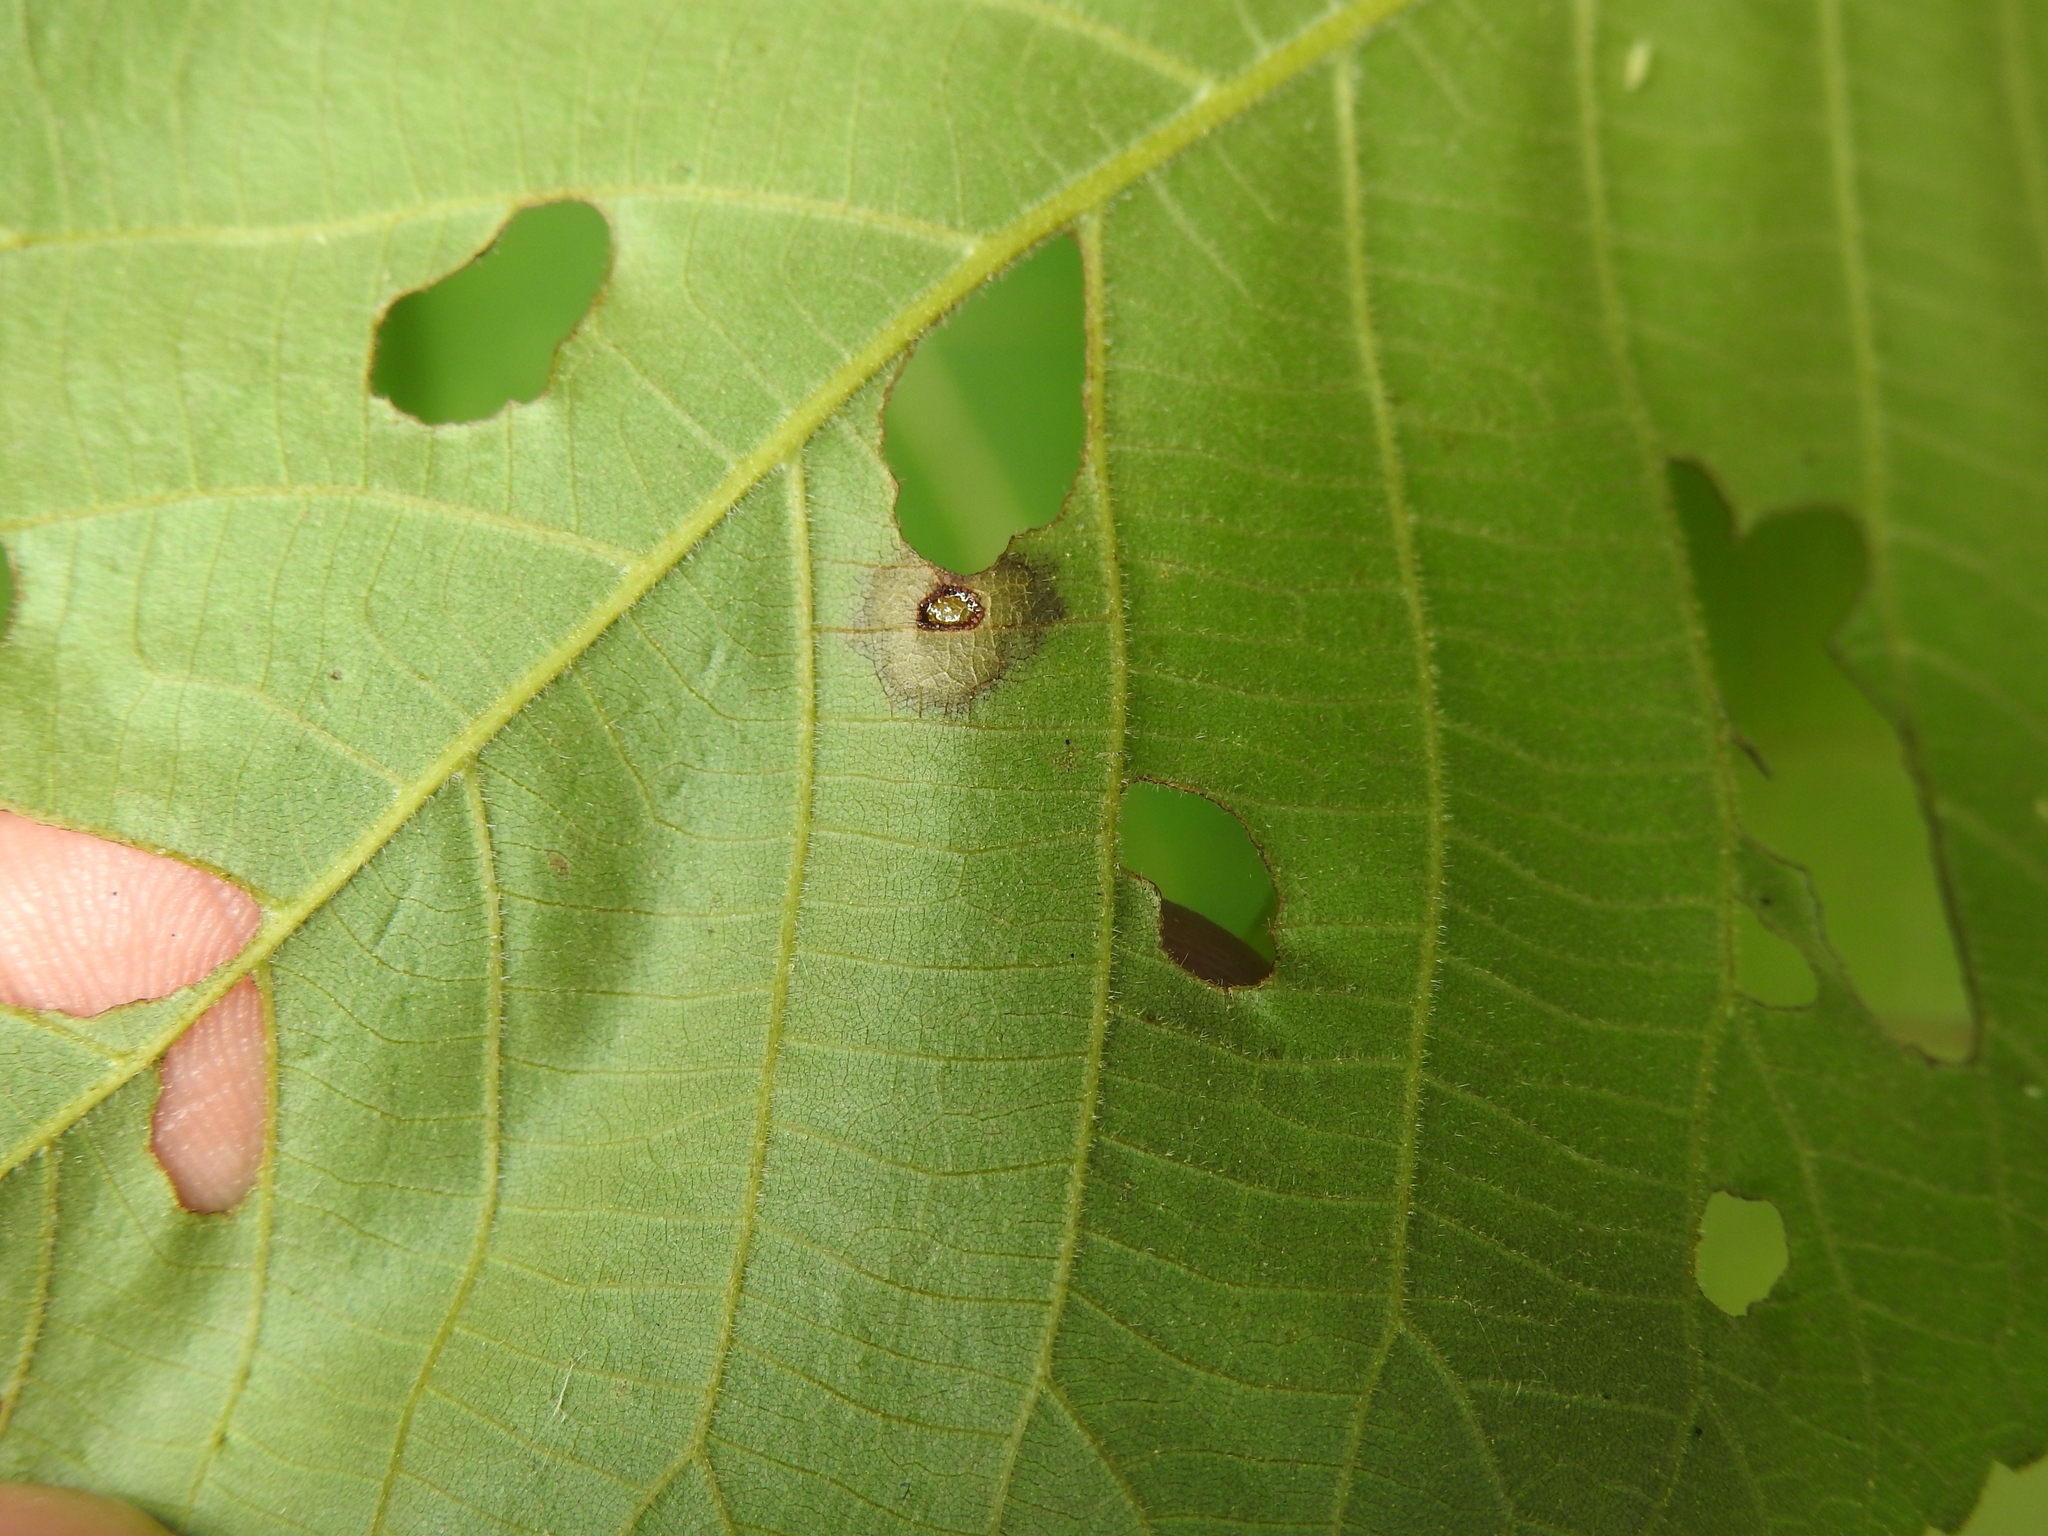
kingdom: Animalia
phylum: Arthropoda
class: Insecta
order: Diptera
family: Cecidomyiidae
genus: Gliaspilota
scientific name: Gliaspilota glutinosa
